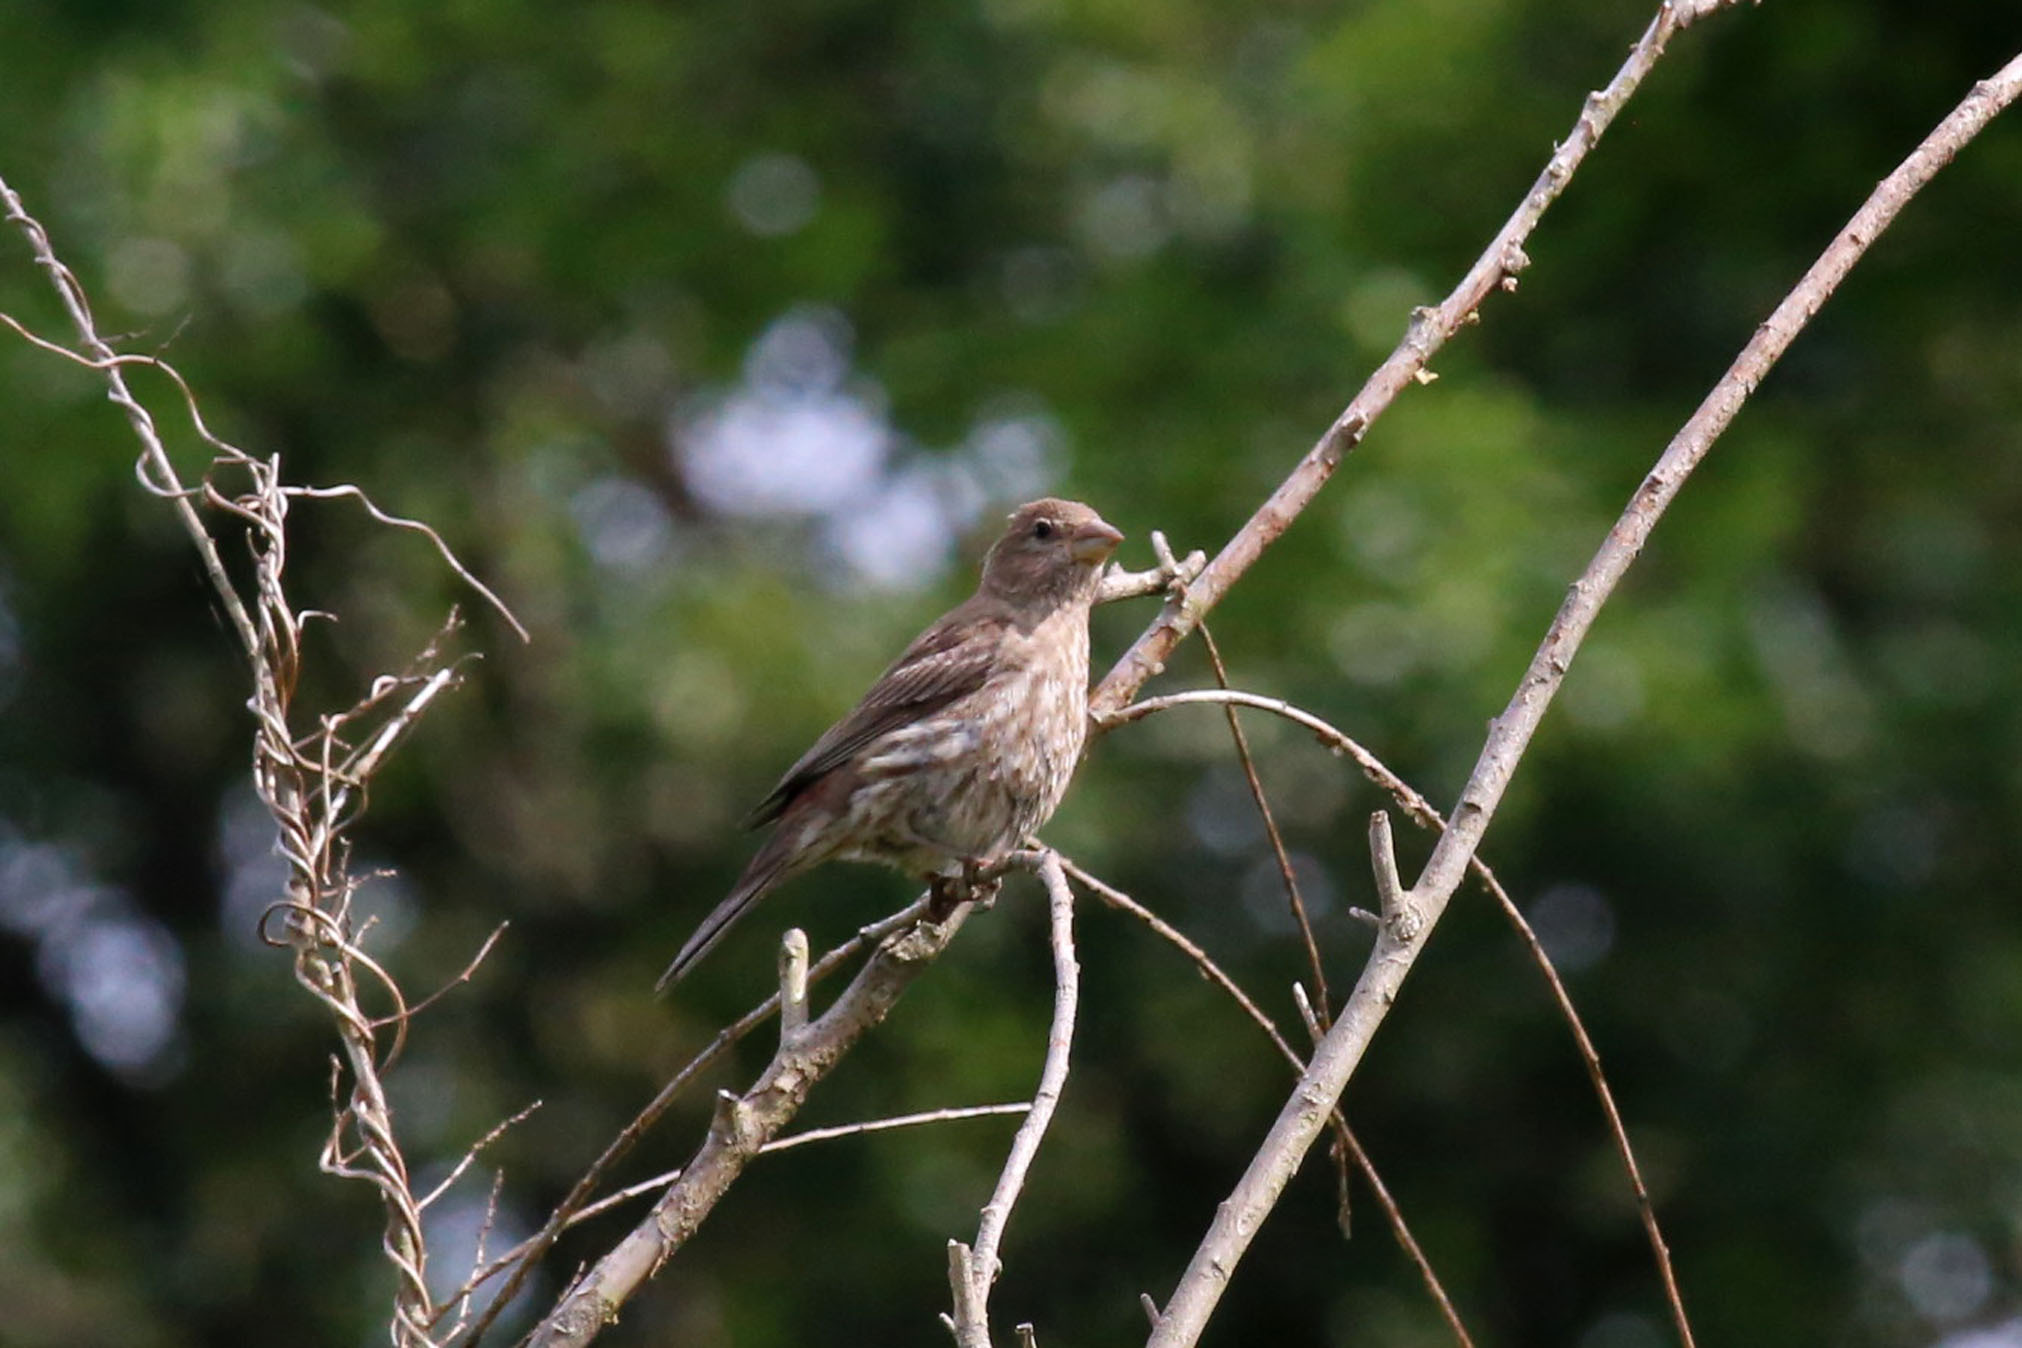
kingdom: Animalia
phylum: Chordata
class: Aves
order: Passeriformes
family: Fringillidae
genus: Haemorhous
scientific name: Haemorhous mexicanus
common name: House finch
